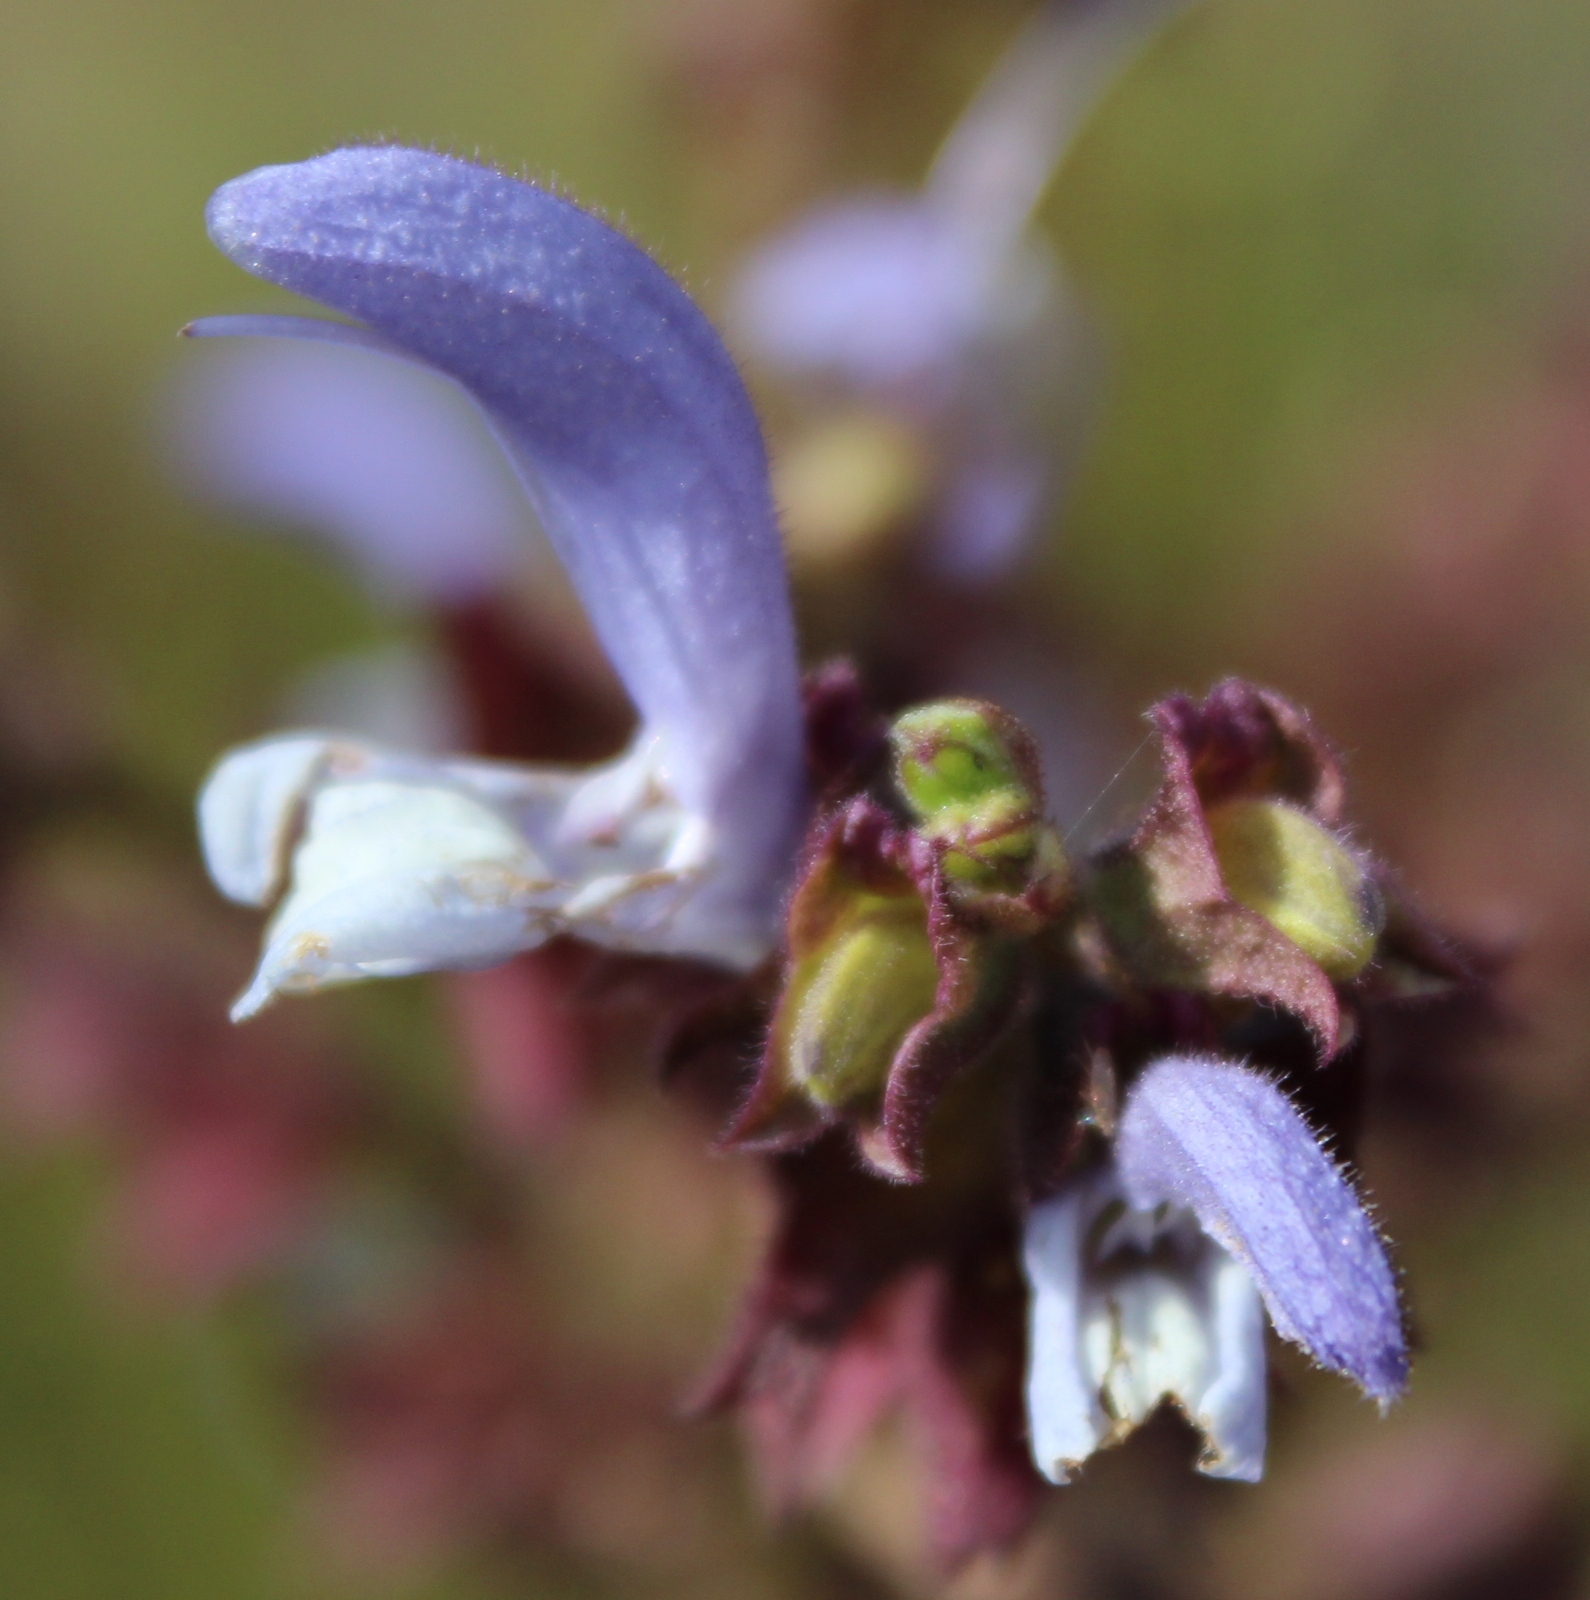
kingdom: Plantae
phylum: Tracheophyta
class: Magnoliopsida
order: Lamiales
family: Lamiaceae
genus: Salvia
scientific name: Salvia chamelaeagnea
